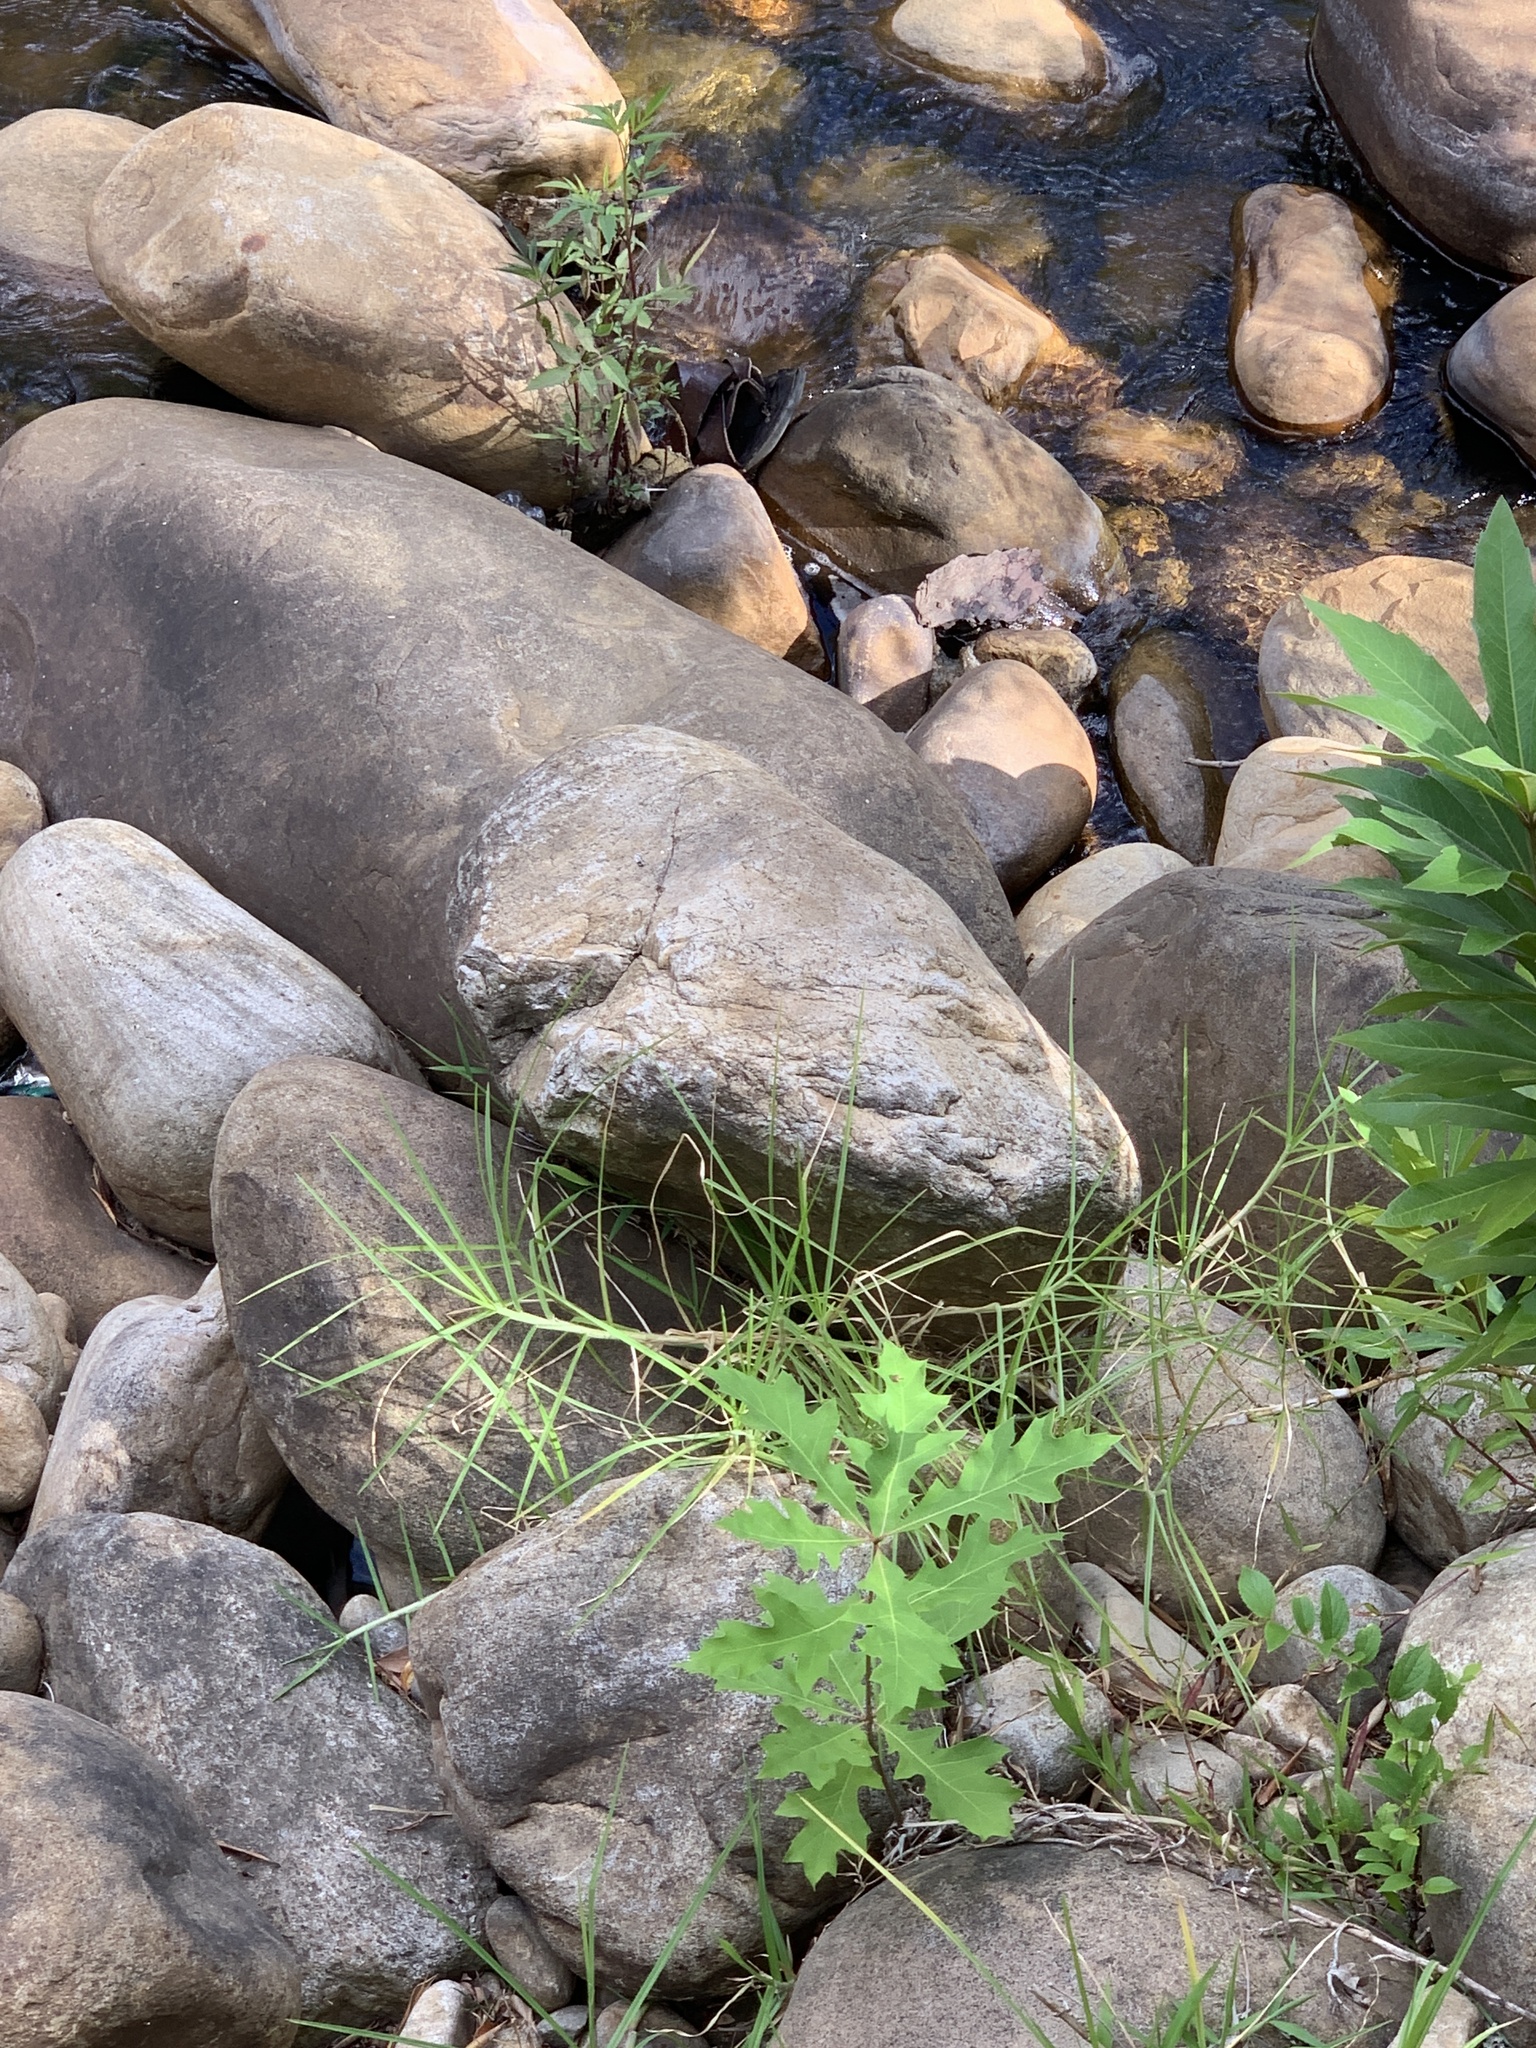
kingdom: Plantae
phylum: Tracheophyta
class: Magnoliopsida
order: Fagales
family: Fagaceae
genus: Quercus
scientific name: Quercus palustris
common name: Pin oak
